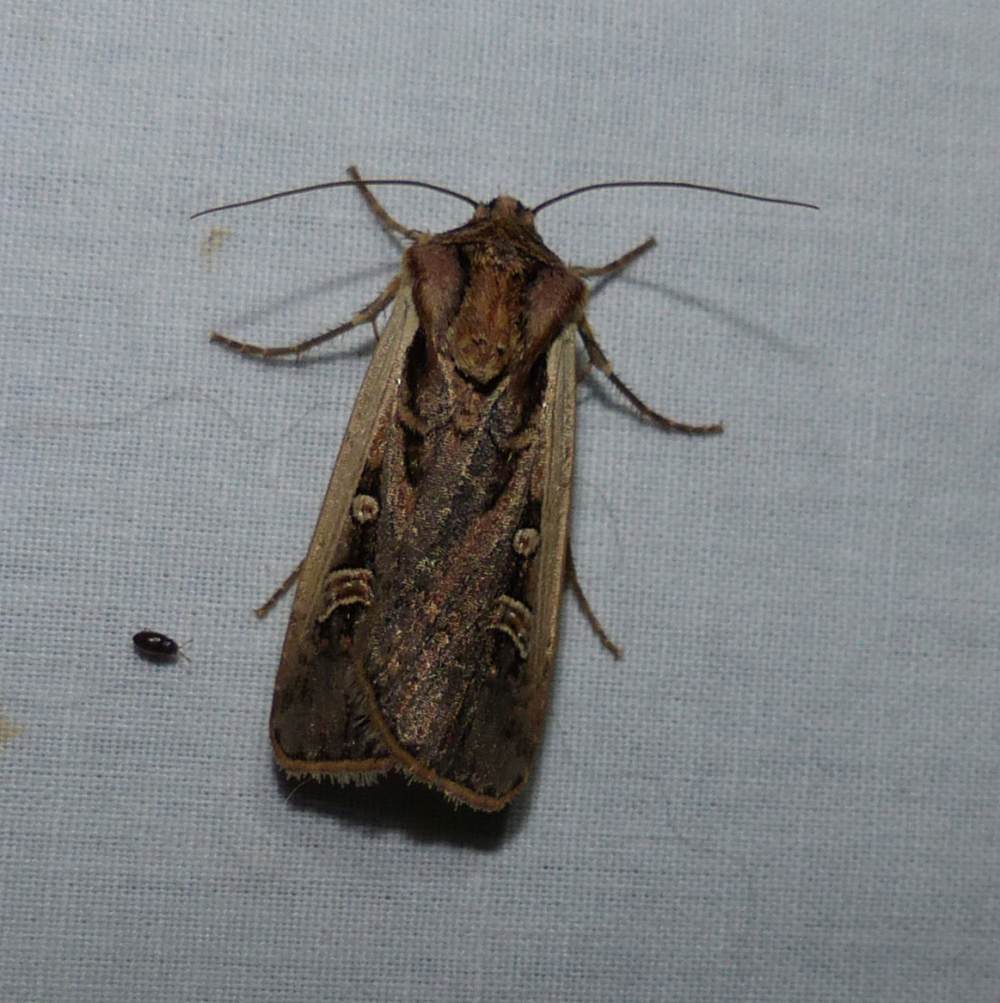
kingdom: Animalia
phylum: Arthropoda
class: Insecta
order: Lepidoptera
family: Noctuidae
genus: Striacosta
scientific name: Striacosta albicosta
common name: Western bean cutworm moth
